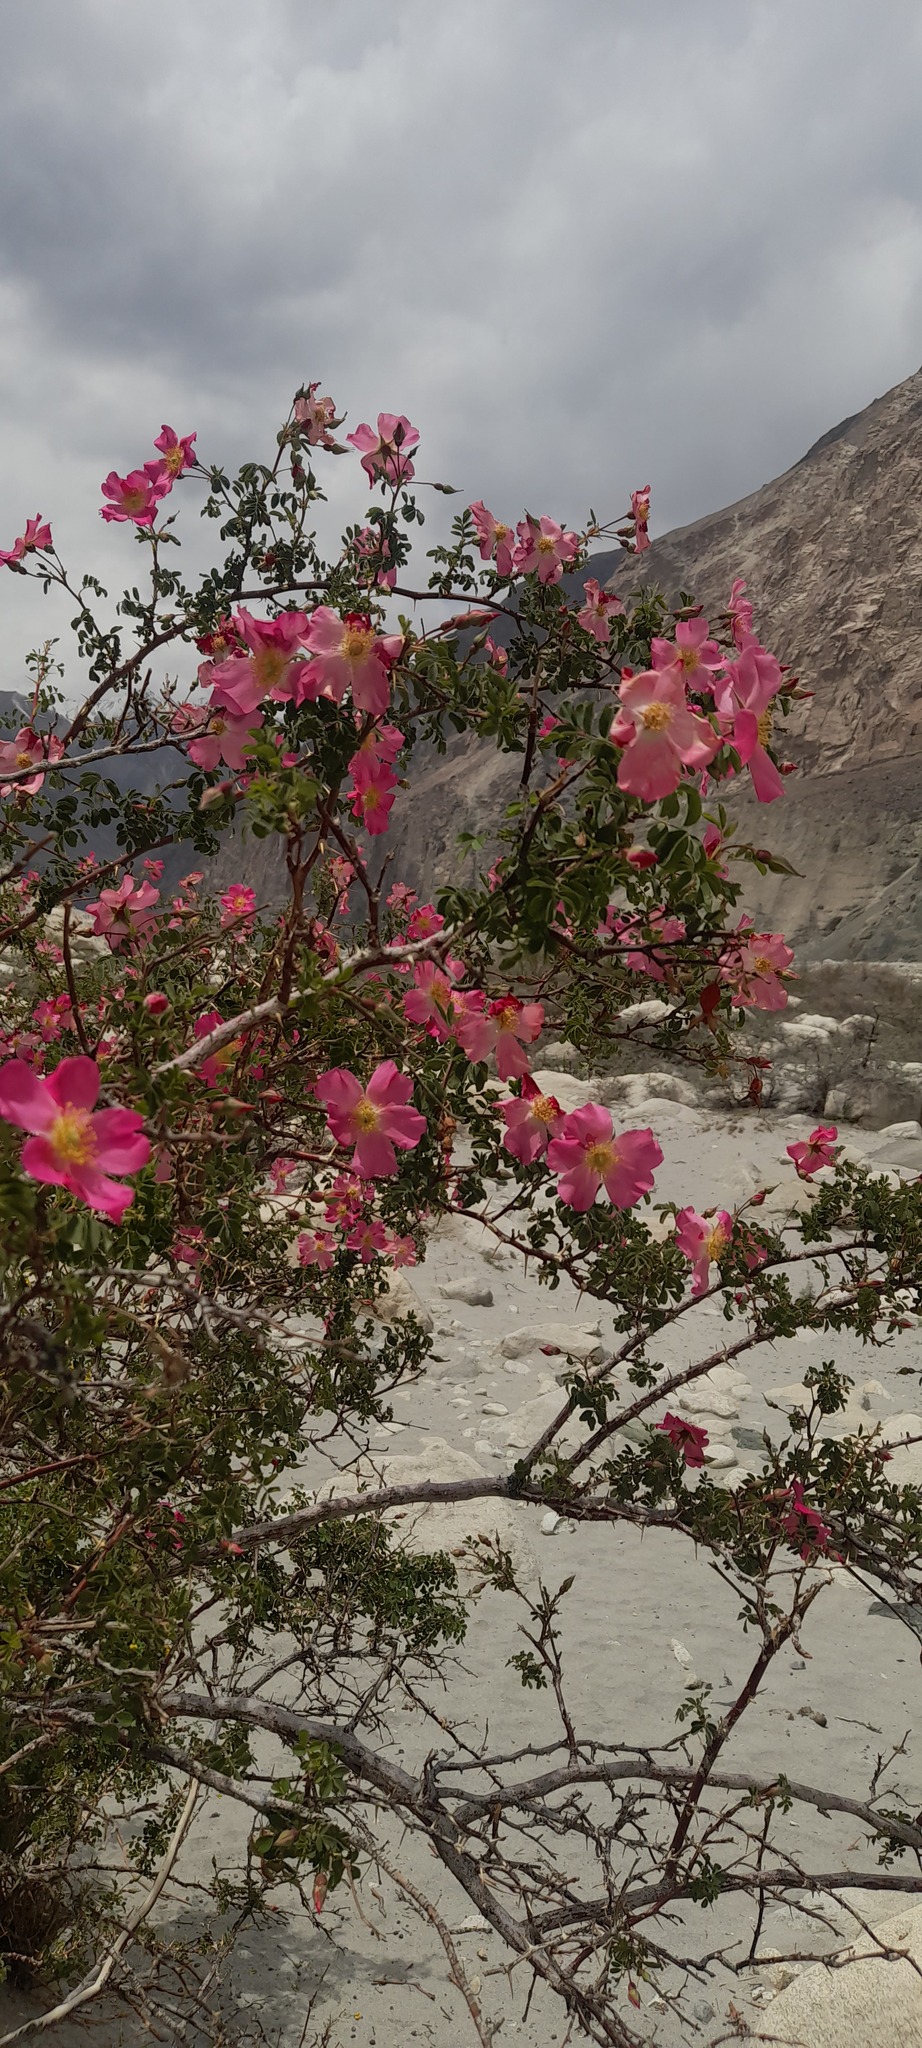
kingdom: Plantae
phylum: Tracheophyta
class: Magnoliopsida
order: Rosales
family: Rosaceae
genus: Rosa
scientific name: Rosa webbiana
